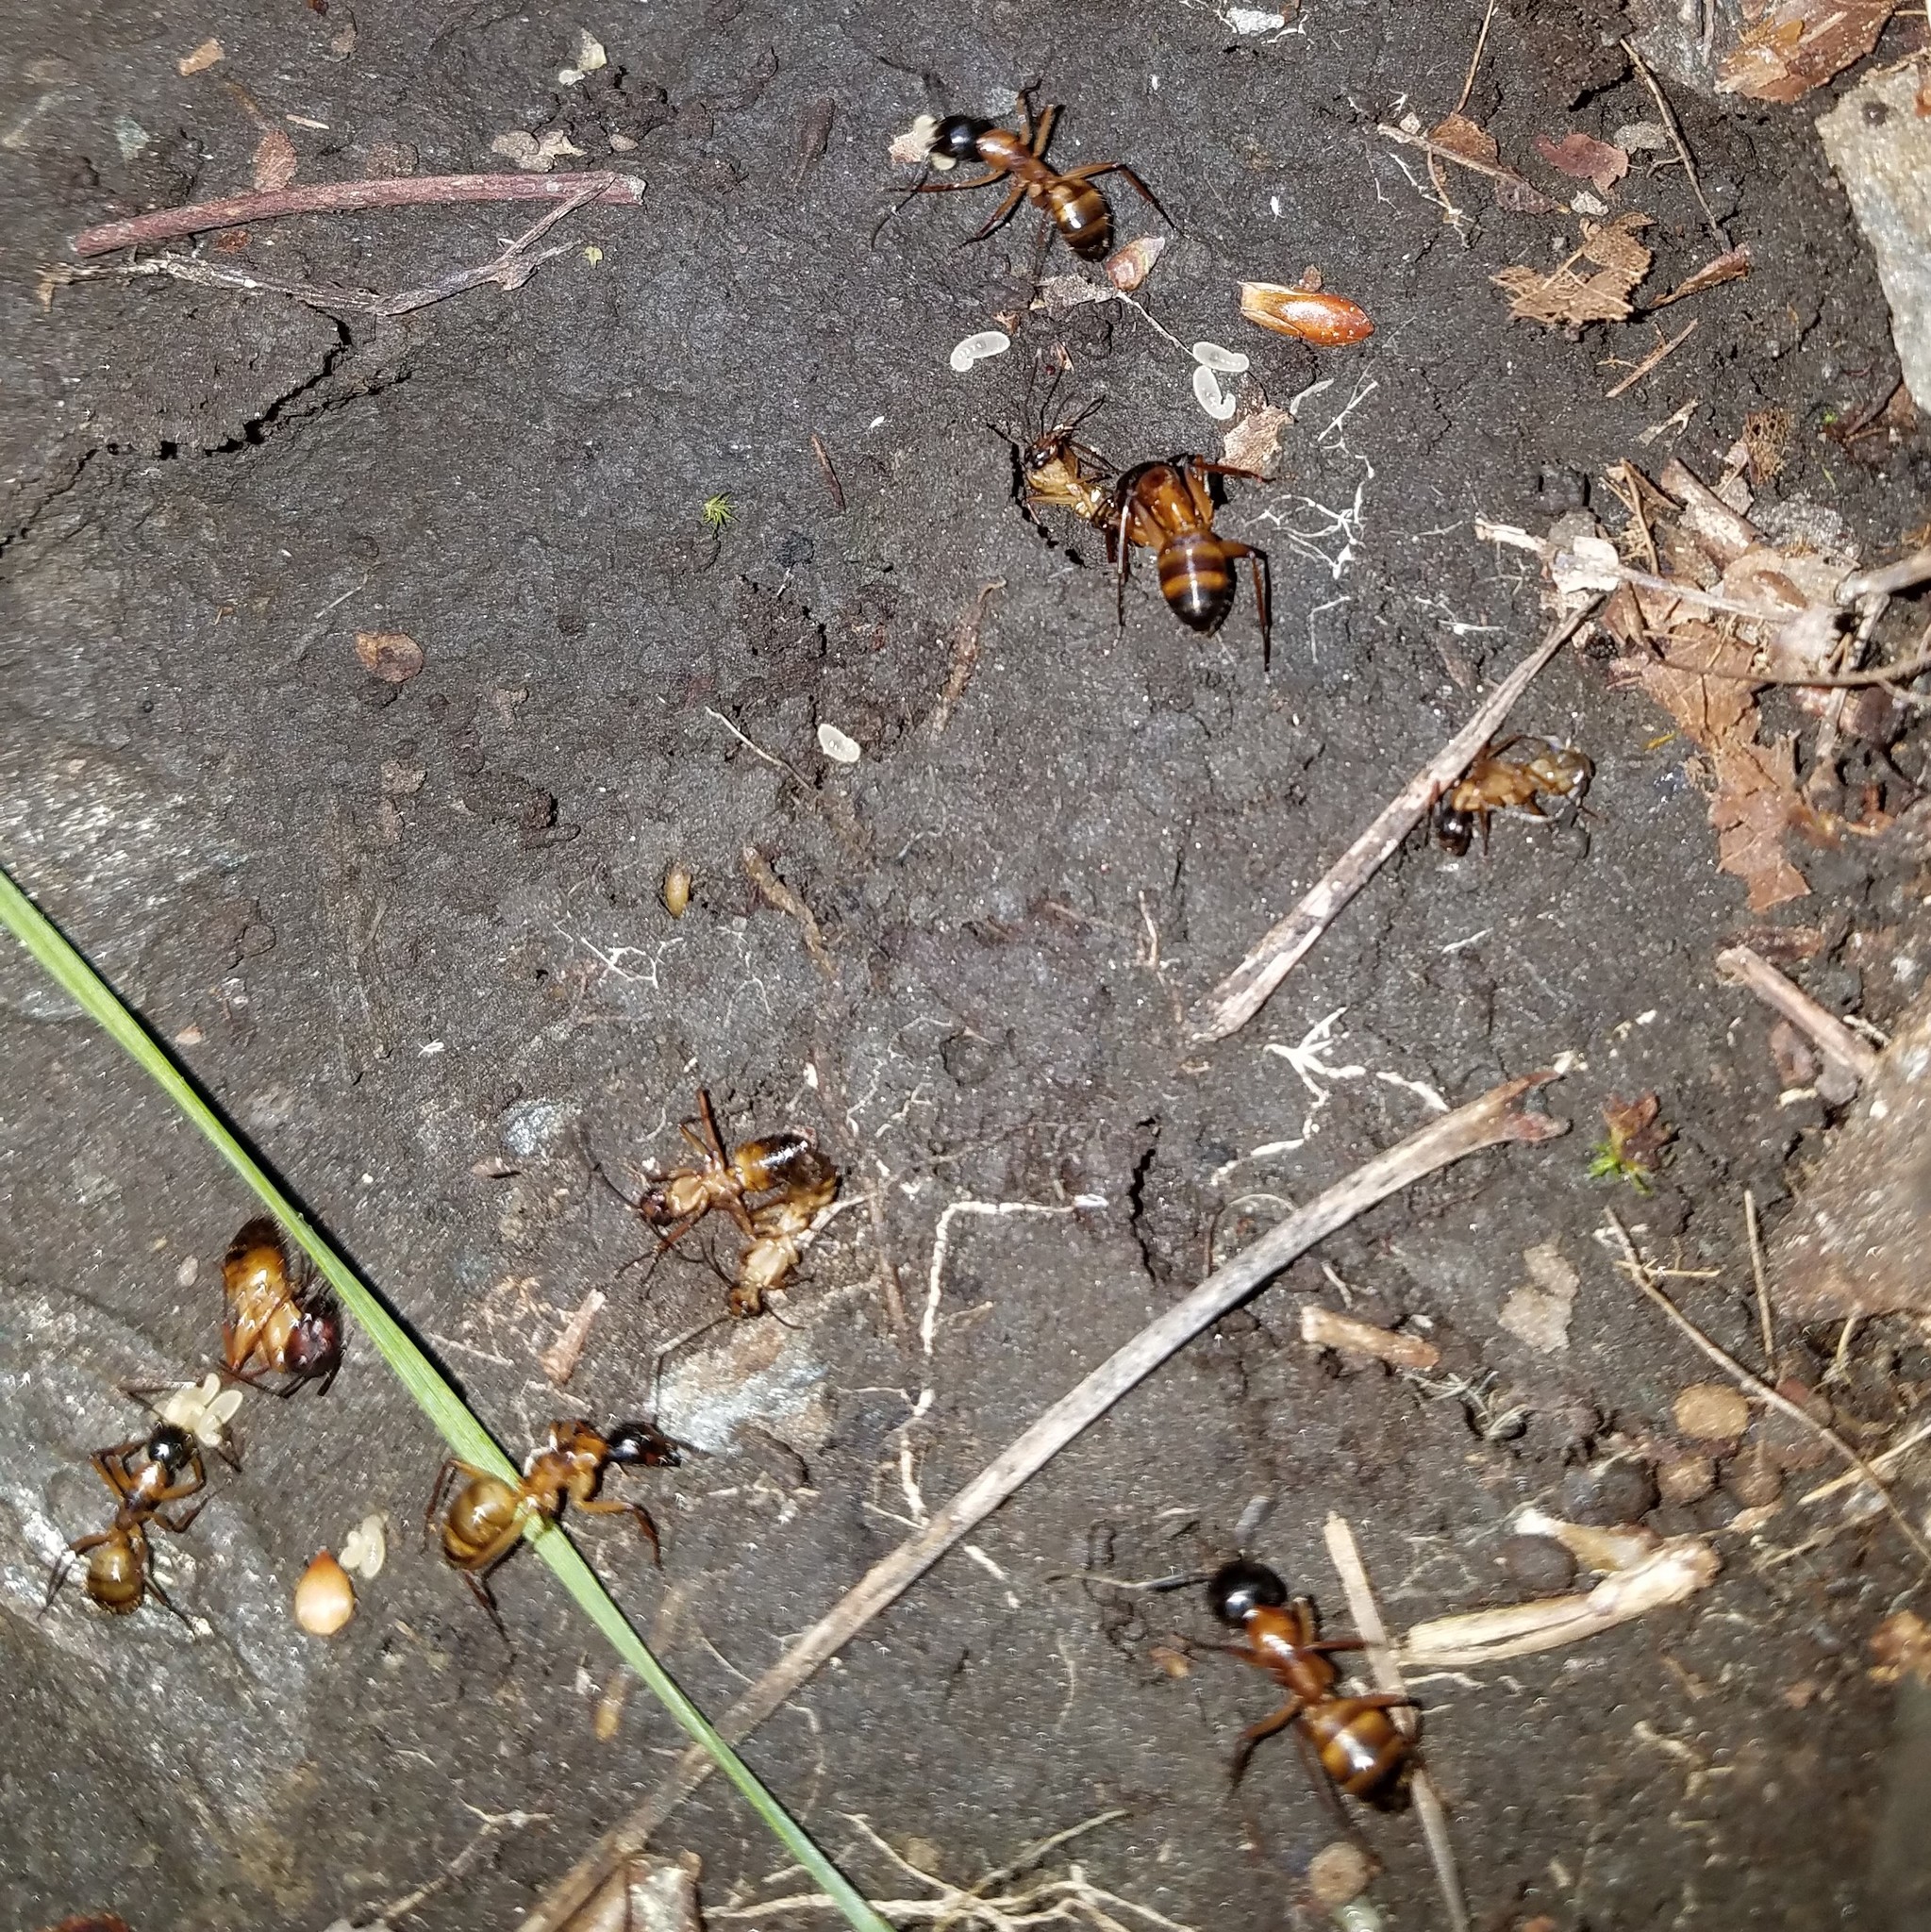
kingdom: Animalia
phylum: Arthropoda
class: Insecta
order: Hymenoptera
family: Formicidae
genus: Camponotus
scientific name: Camponotus americanus
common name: American carpenter ant
